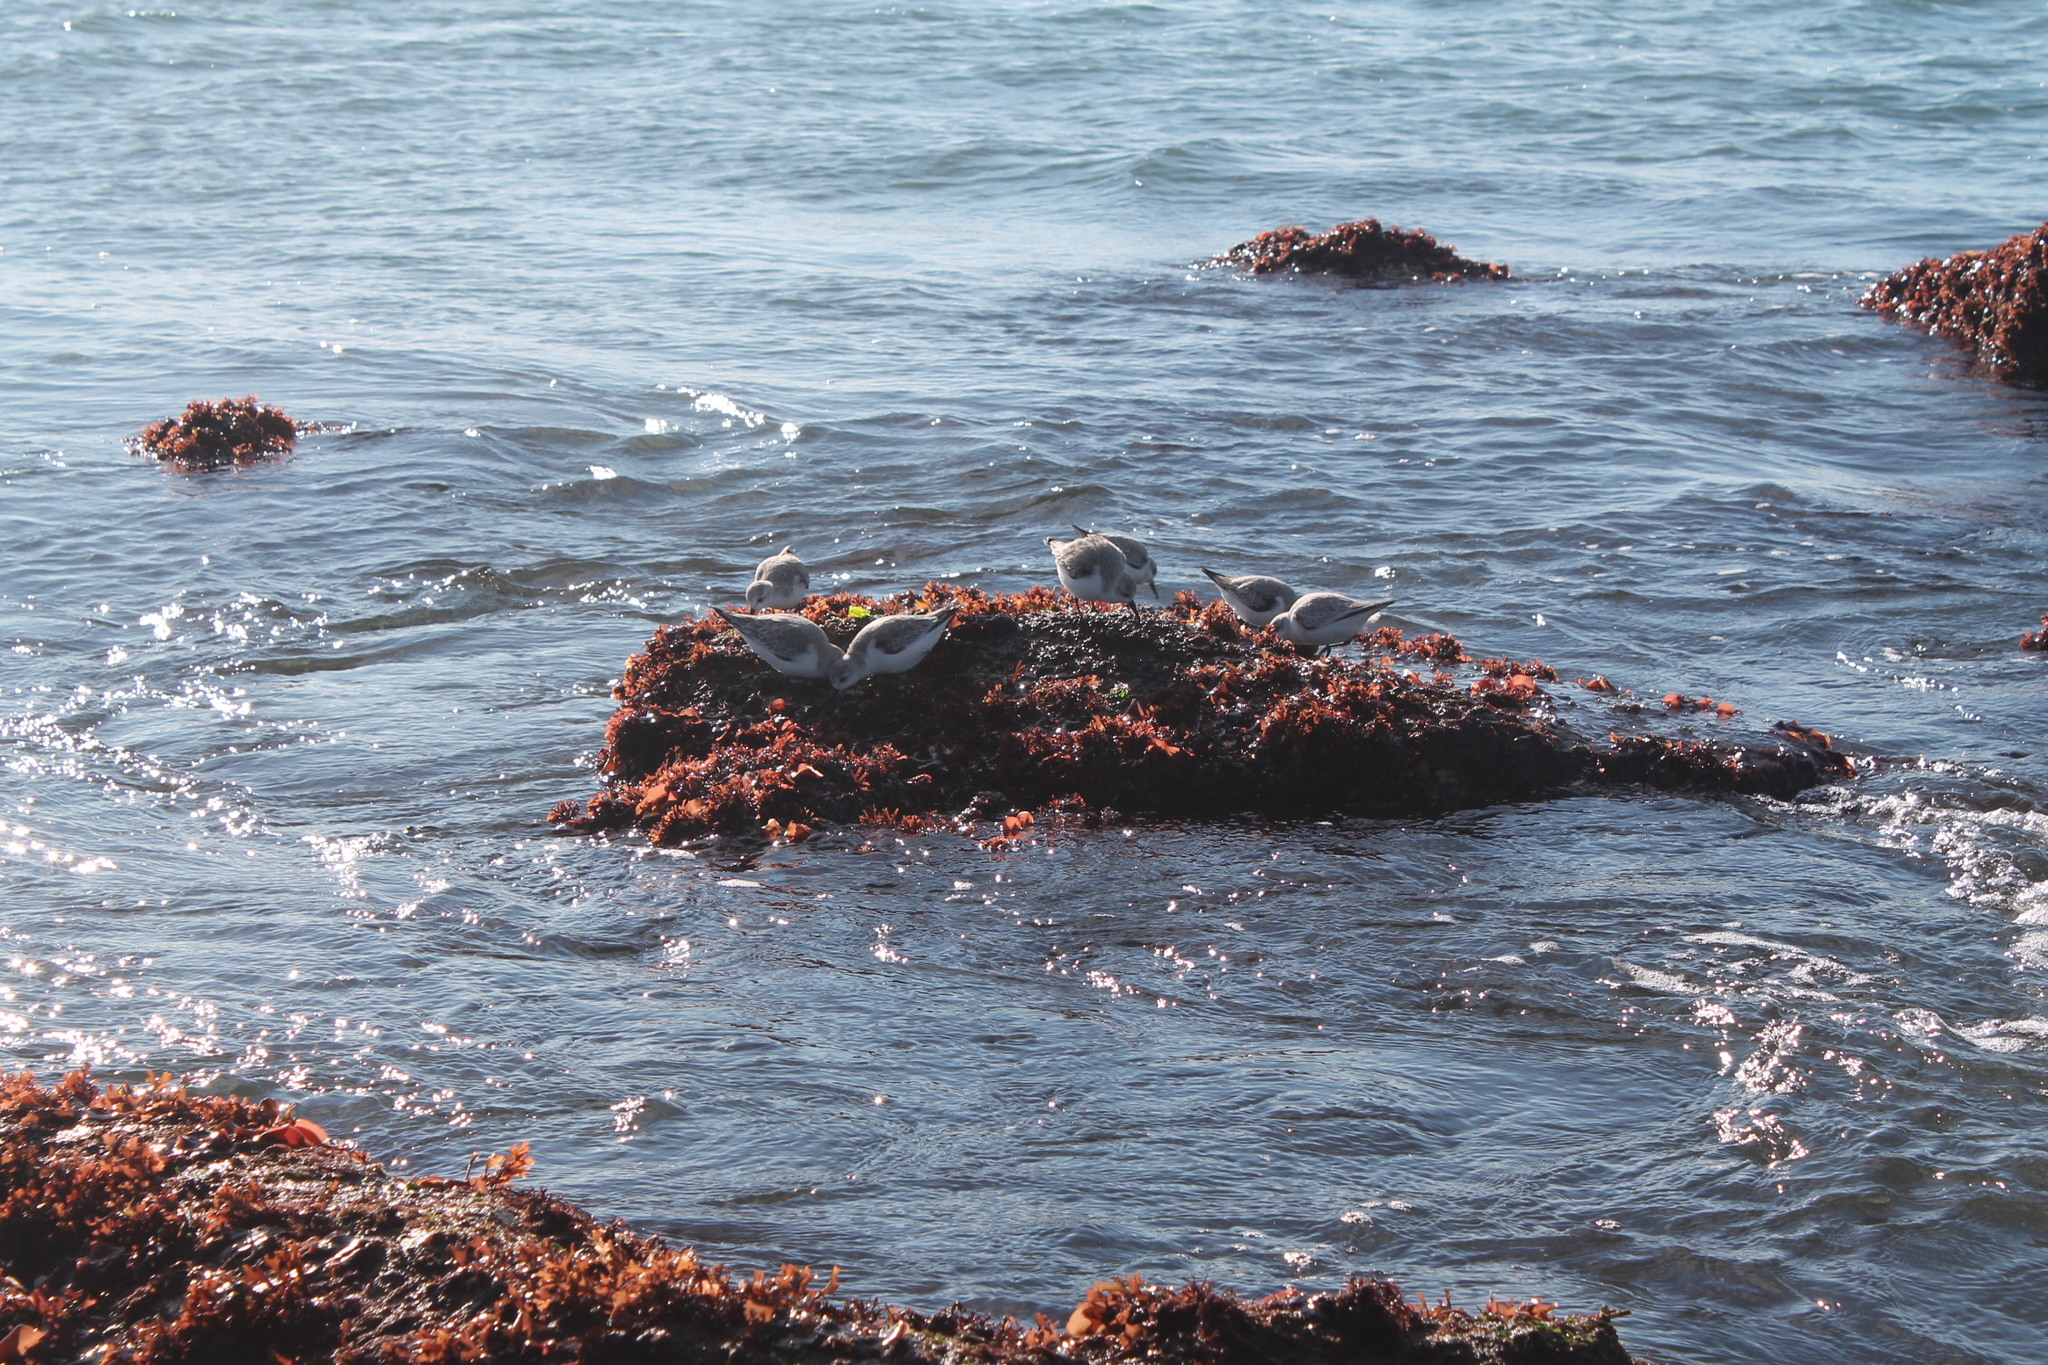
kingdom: Animalia
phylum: Chordata
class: Aves
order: Charadriiformes
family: Scolopacidae
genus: Calidris
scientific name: Calidris alba
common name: Sanderling
